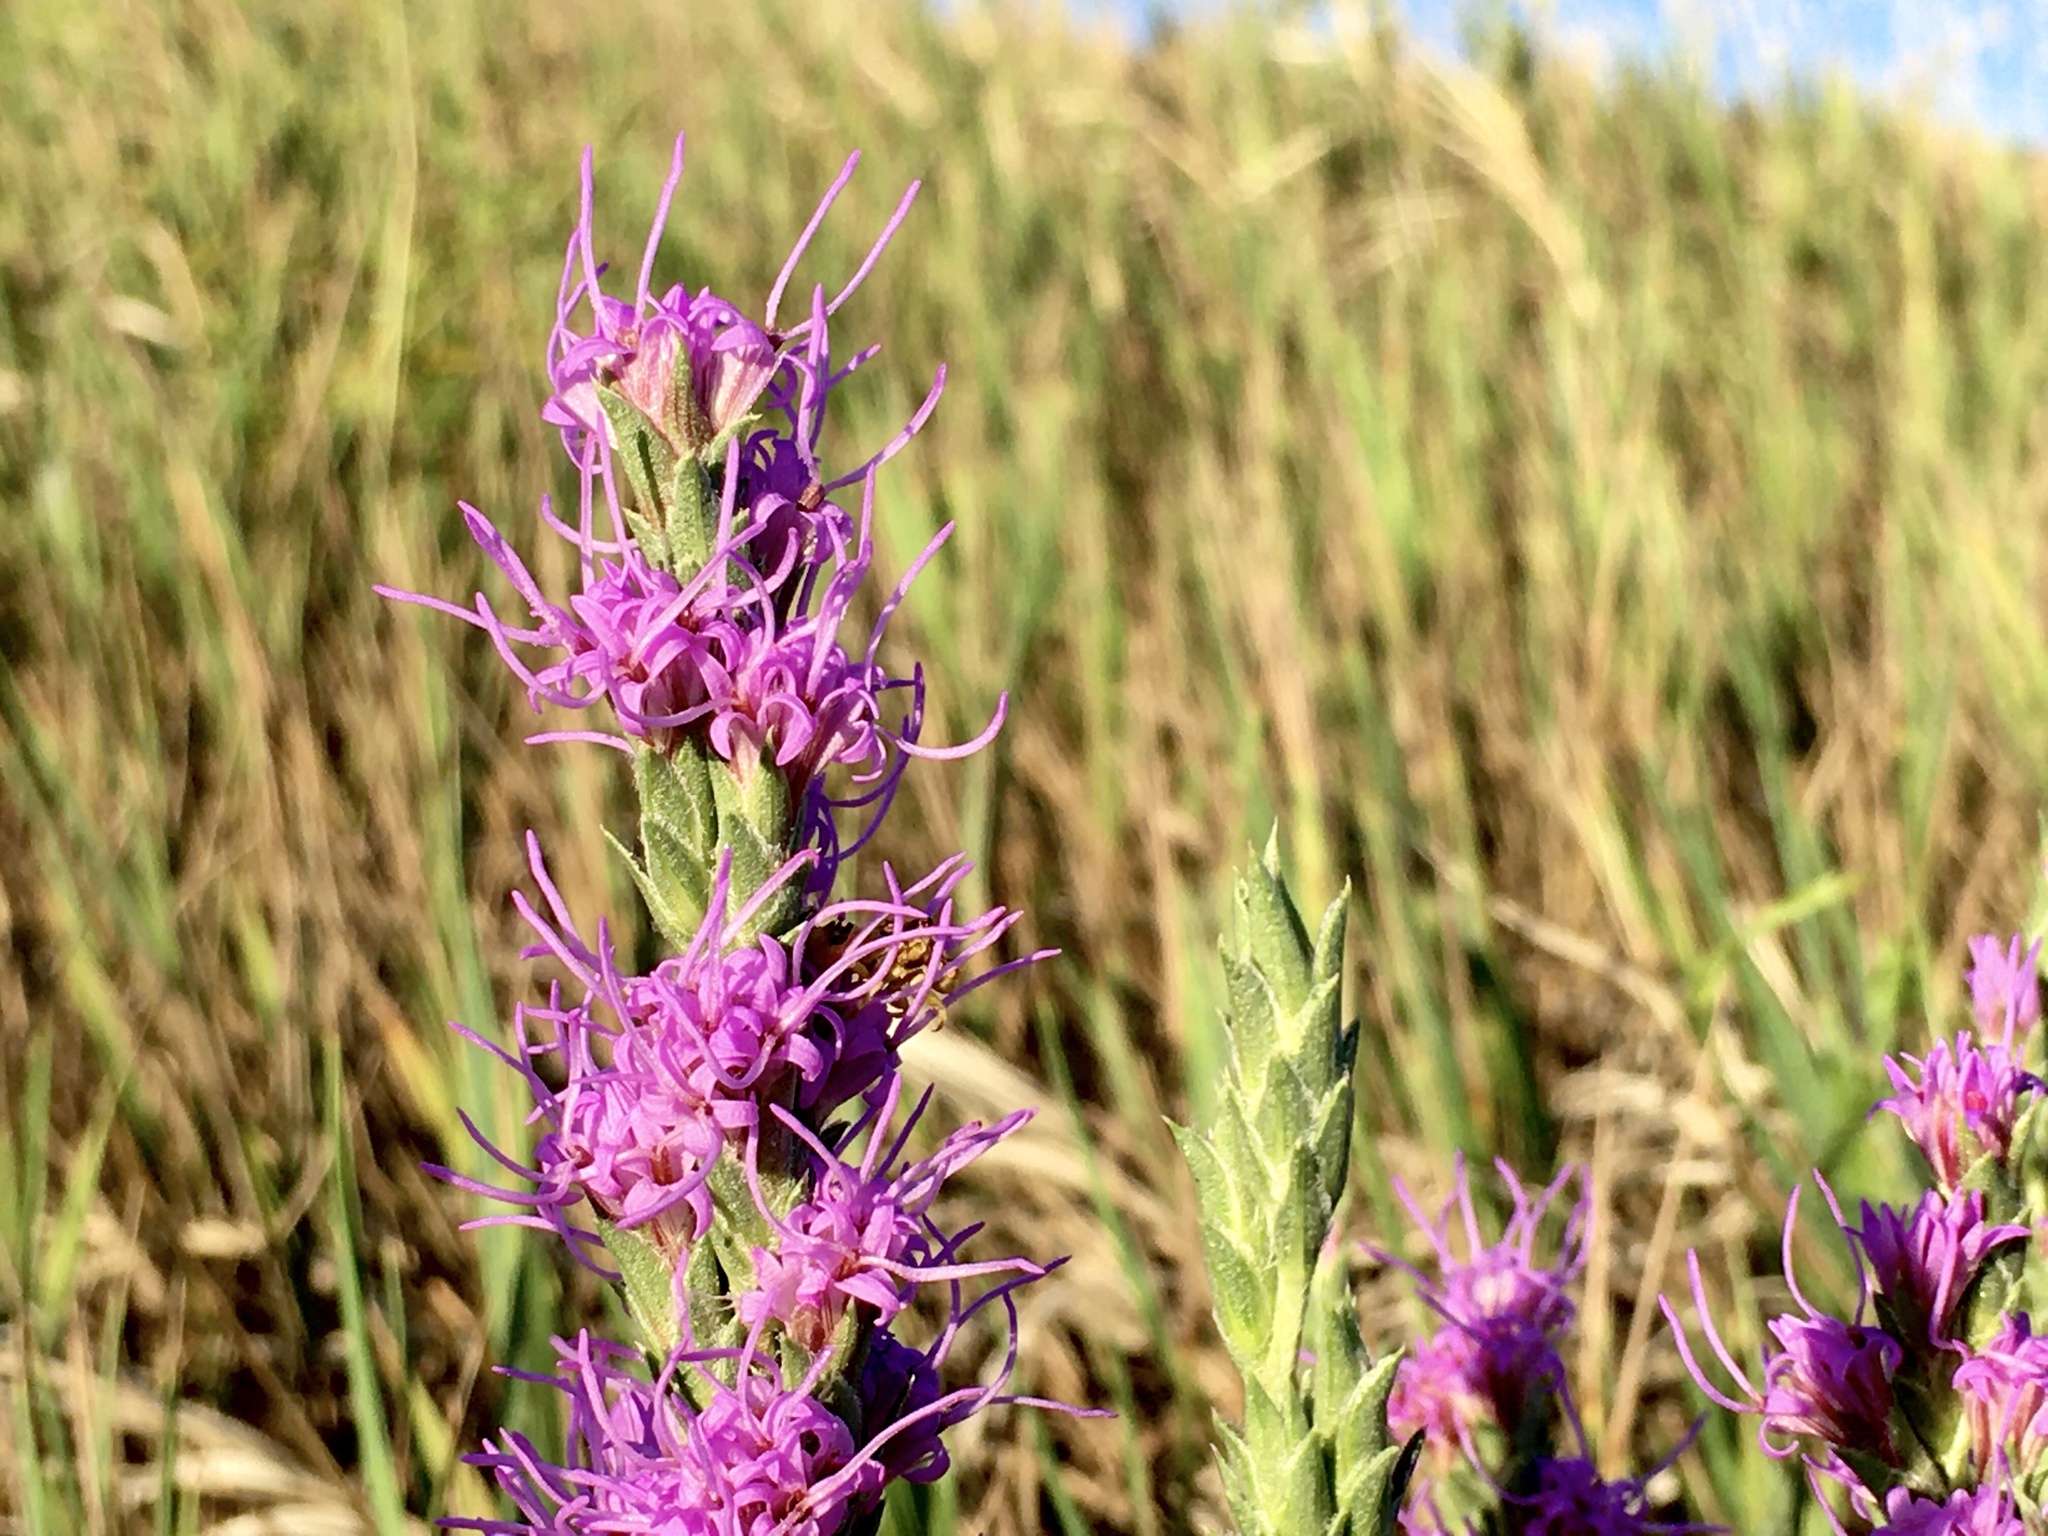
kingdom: Plantae
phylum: Tracheophyta
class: Magnoliopsida
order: Asterales
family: Asteraceae
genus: Liatris
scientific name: Liatris punctata
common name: Dotted gayfeather
